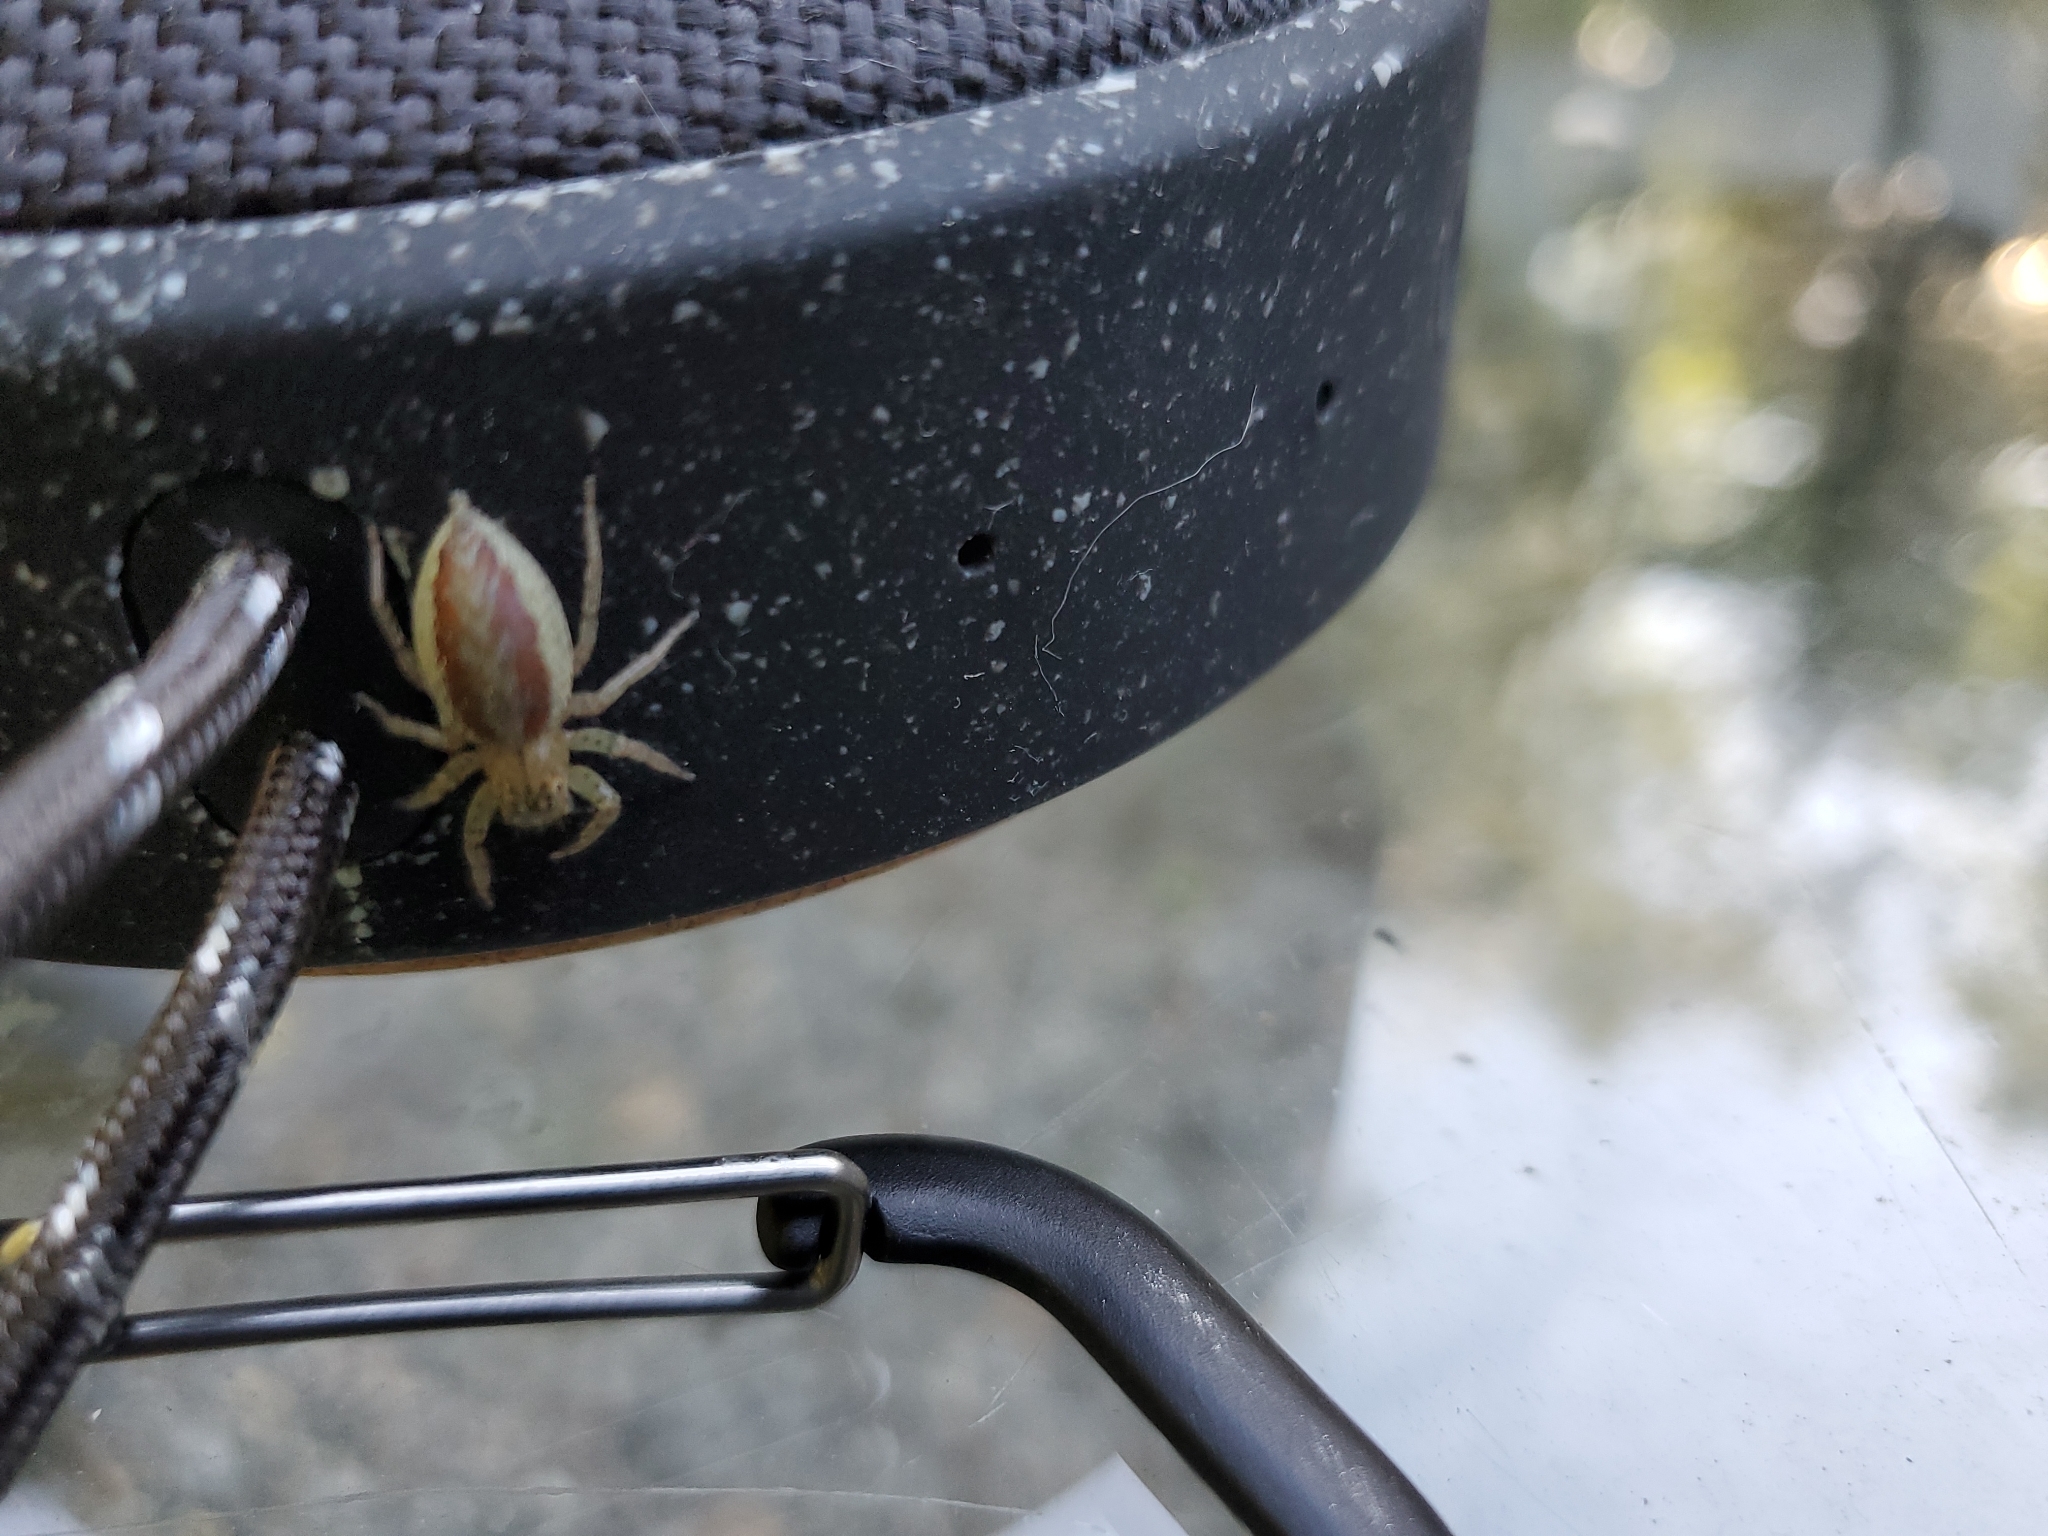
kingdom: Animalia
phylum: Arthropoda
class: Arachnida
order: Araneae
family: Salticidae
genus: Maevia
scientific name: Maevia inclemens
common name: Dimorphic jumper
